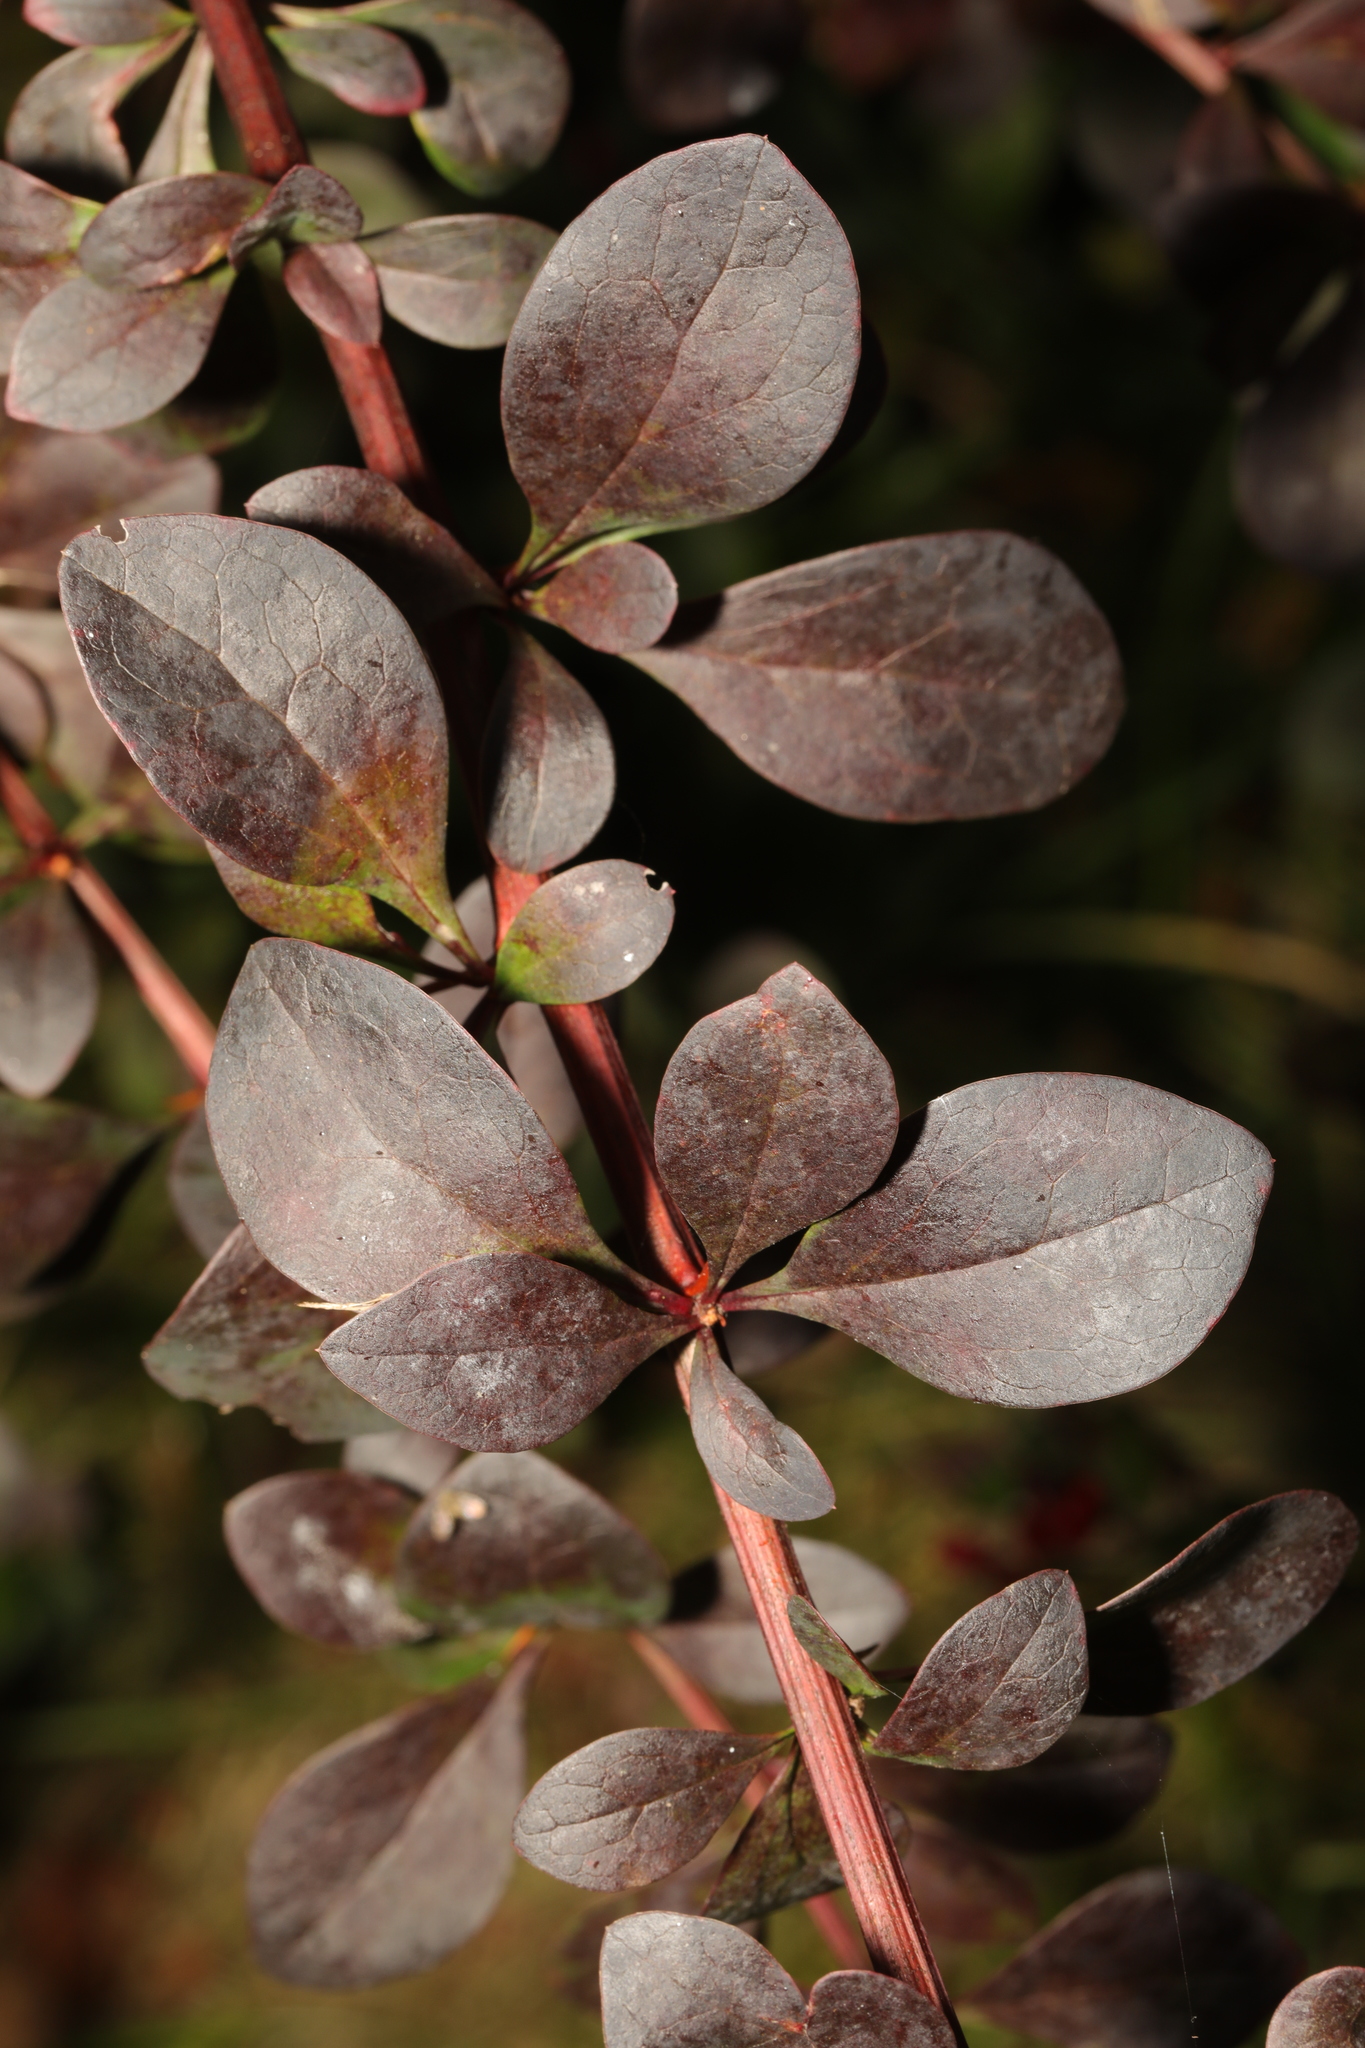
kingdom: Plantae
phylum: Tracheophyta
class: Magnoliopsida
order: Ranunculales
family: Berberidaceae
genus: Berberis
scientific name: Berberis thunbergii
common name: Japanese barberry
